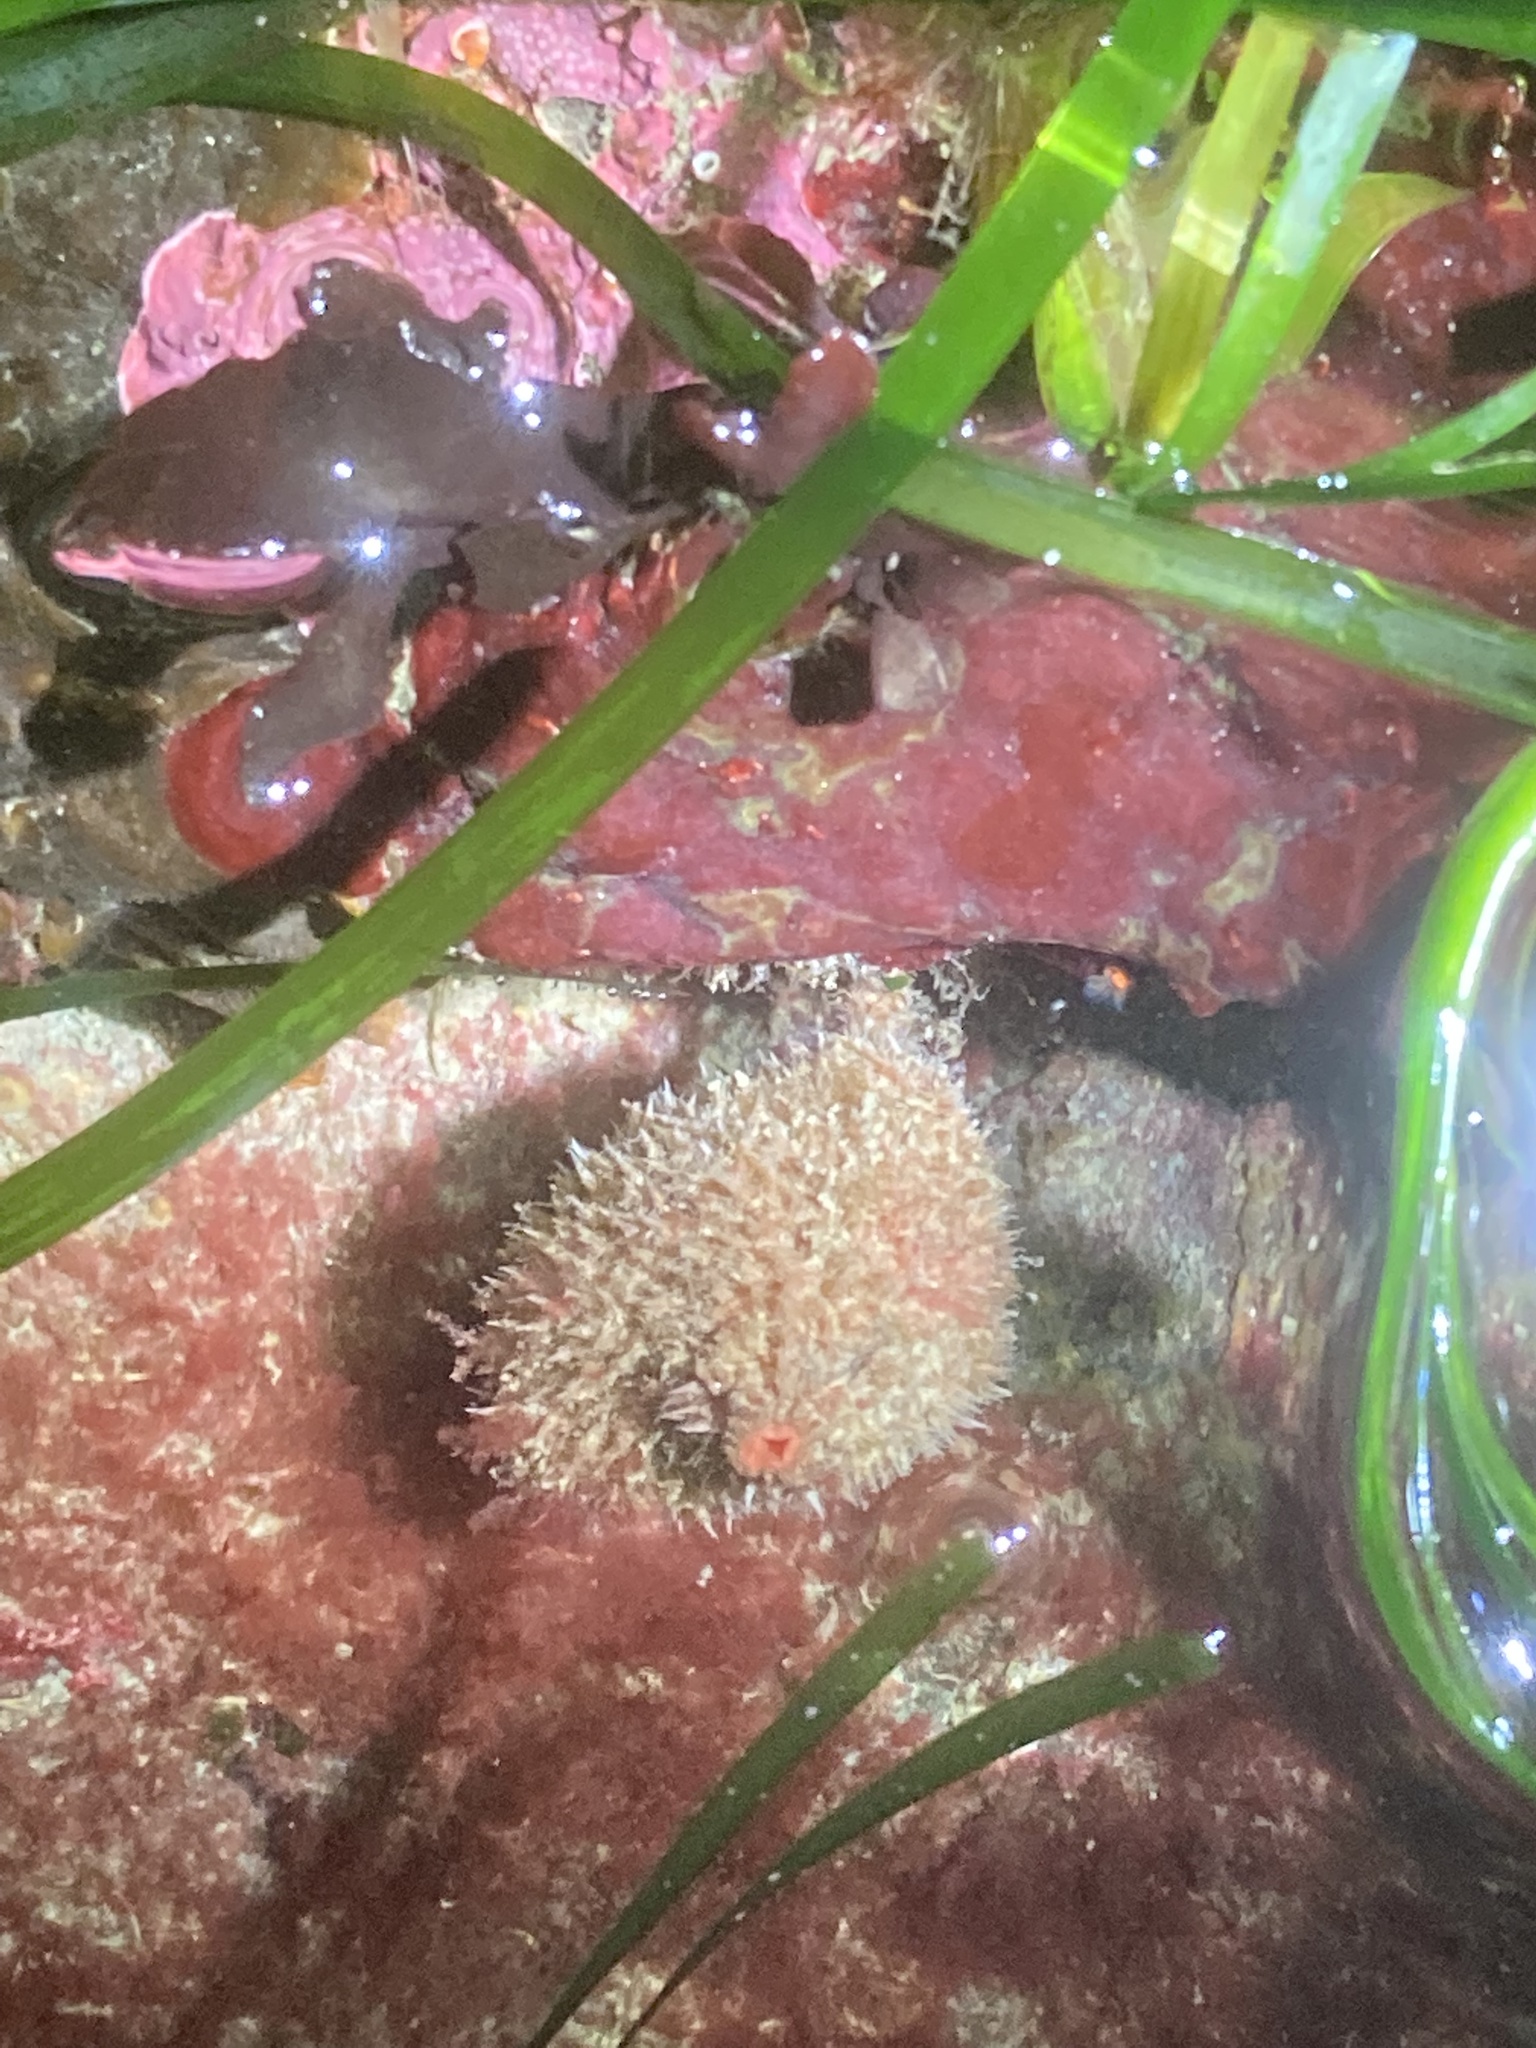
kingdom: Animalia
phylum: Chordata
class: Ascidiacea
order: Stolidobranchia
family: Pyuridae
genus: Boltenia
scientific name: Boltenia villosa
